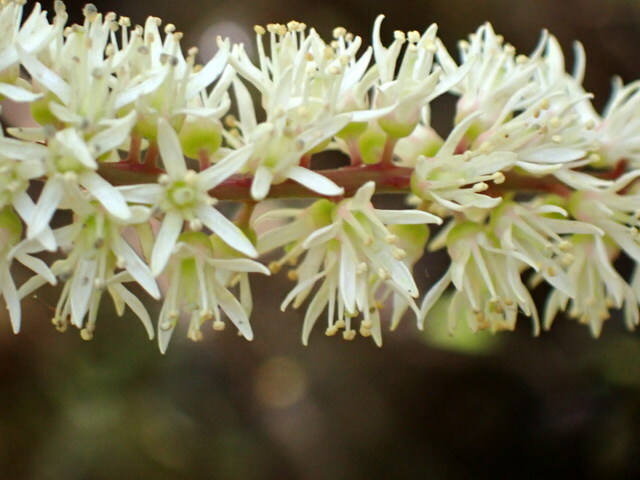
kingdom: Plantae
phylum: Tracheophyta
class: Magnoliopsida
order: Saxifragales
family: Iteaceae
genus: Itea
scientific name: Itea virginica
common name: Sweetspire
